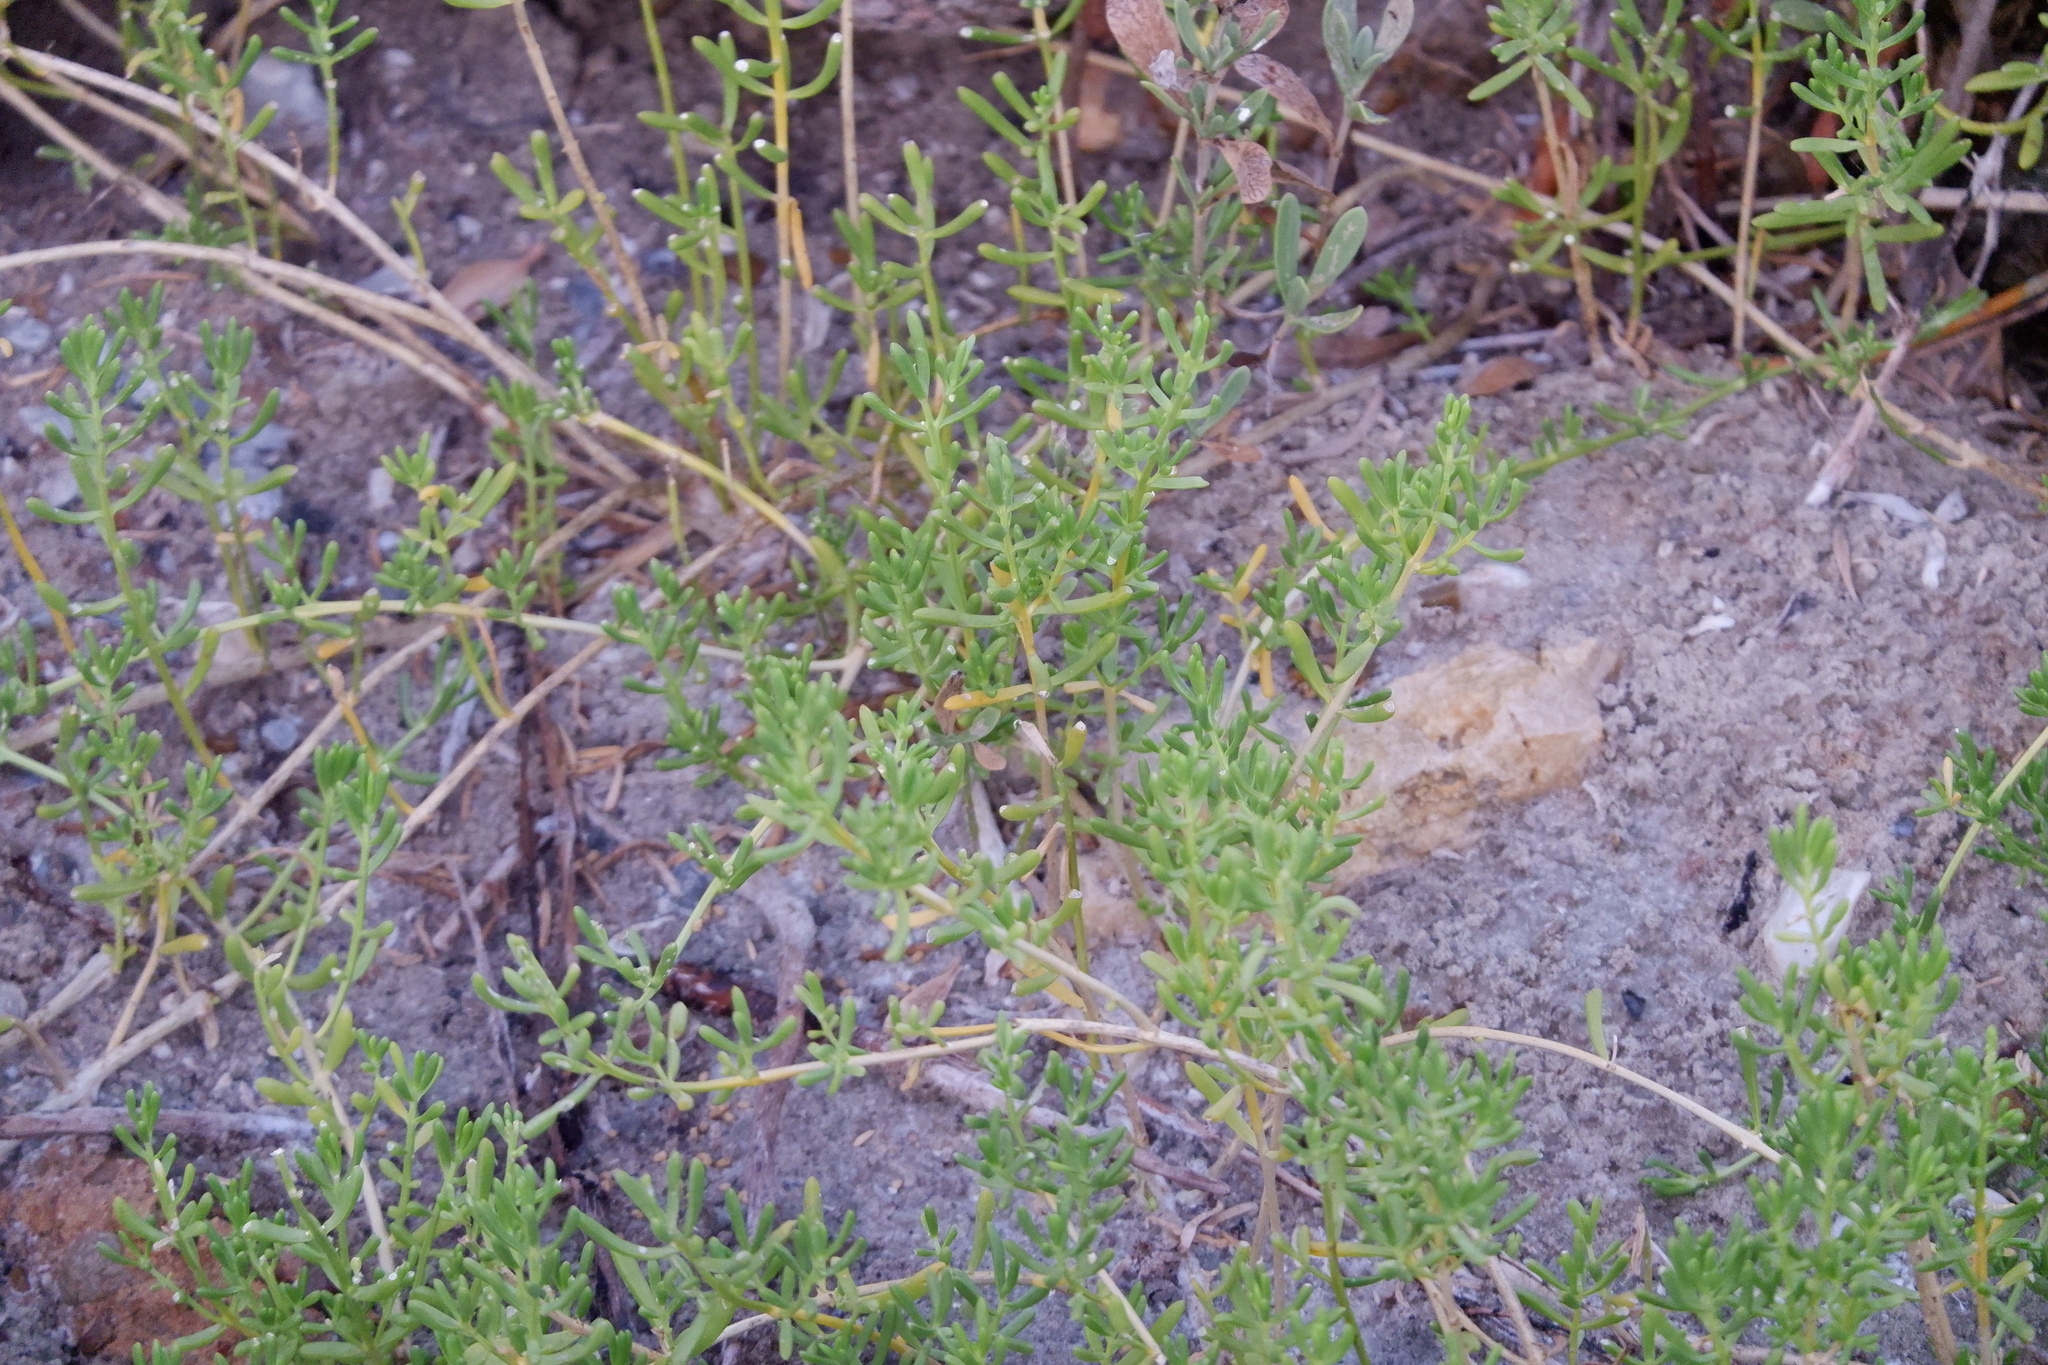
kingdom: Plantae
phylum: Tracheophyta
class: Magnoliopsida
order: Brassicales
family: Bataceae
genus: Batis
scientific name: Batis maritima
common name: Turtleweed
